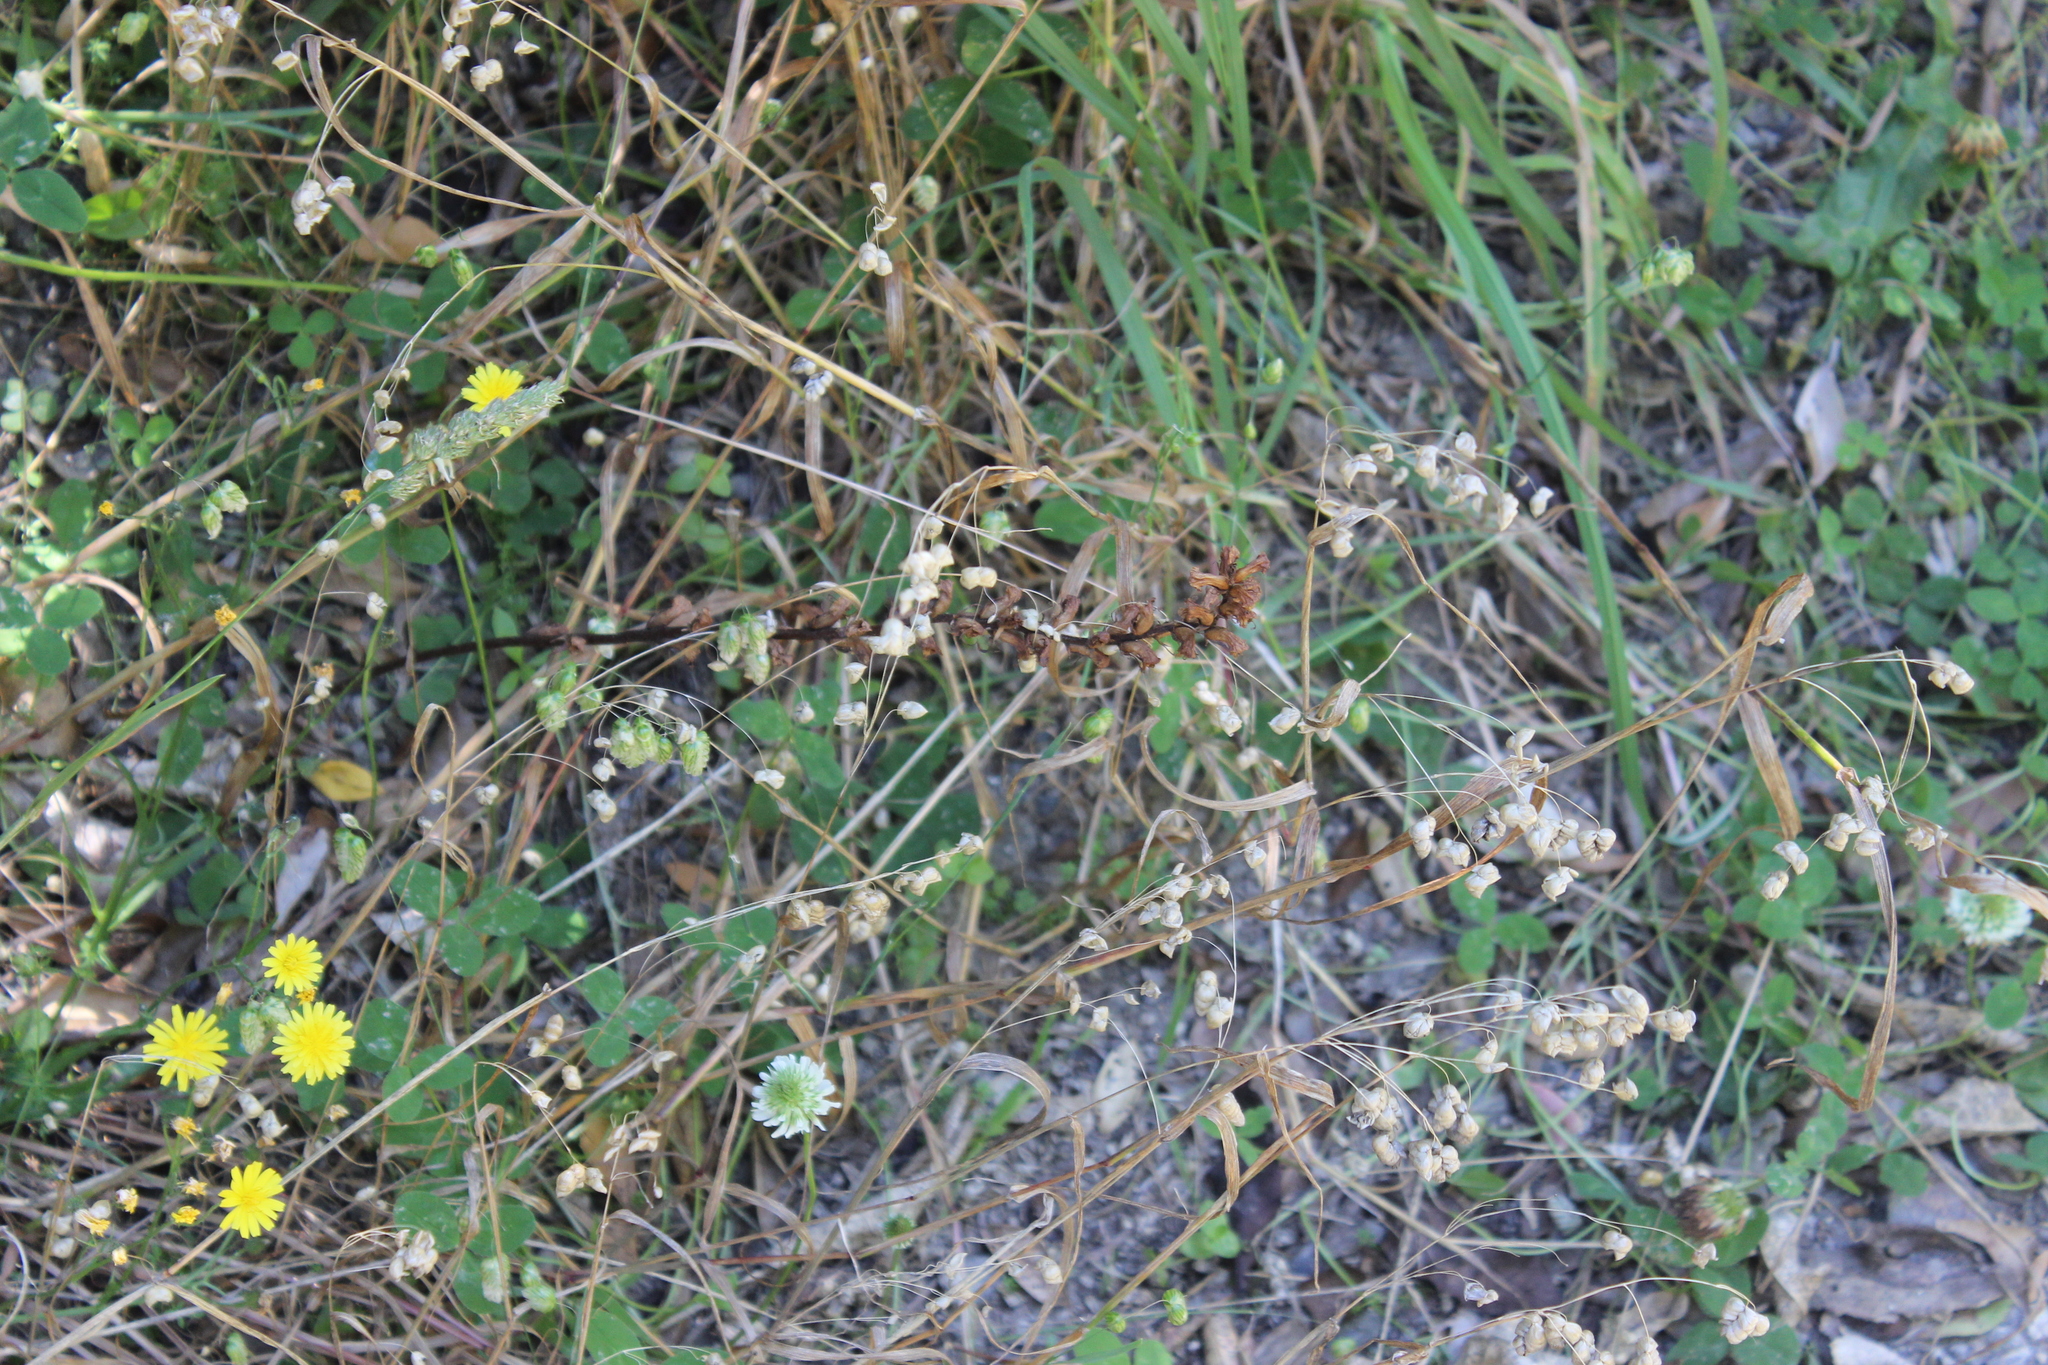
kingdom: Plantae
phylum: Tracheophyta
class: Liliopsida
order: Poales
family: Poaceae
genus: Briza
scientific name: Briza minor
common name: Lesser quaking-grass
